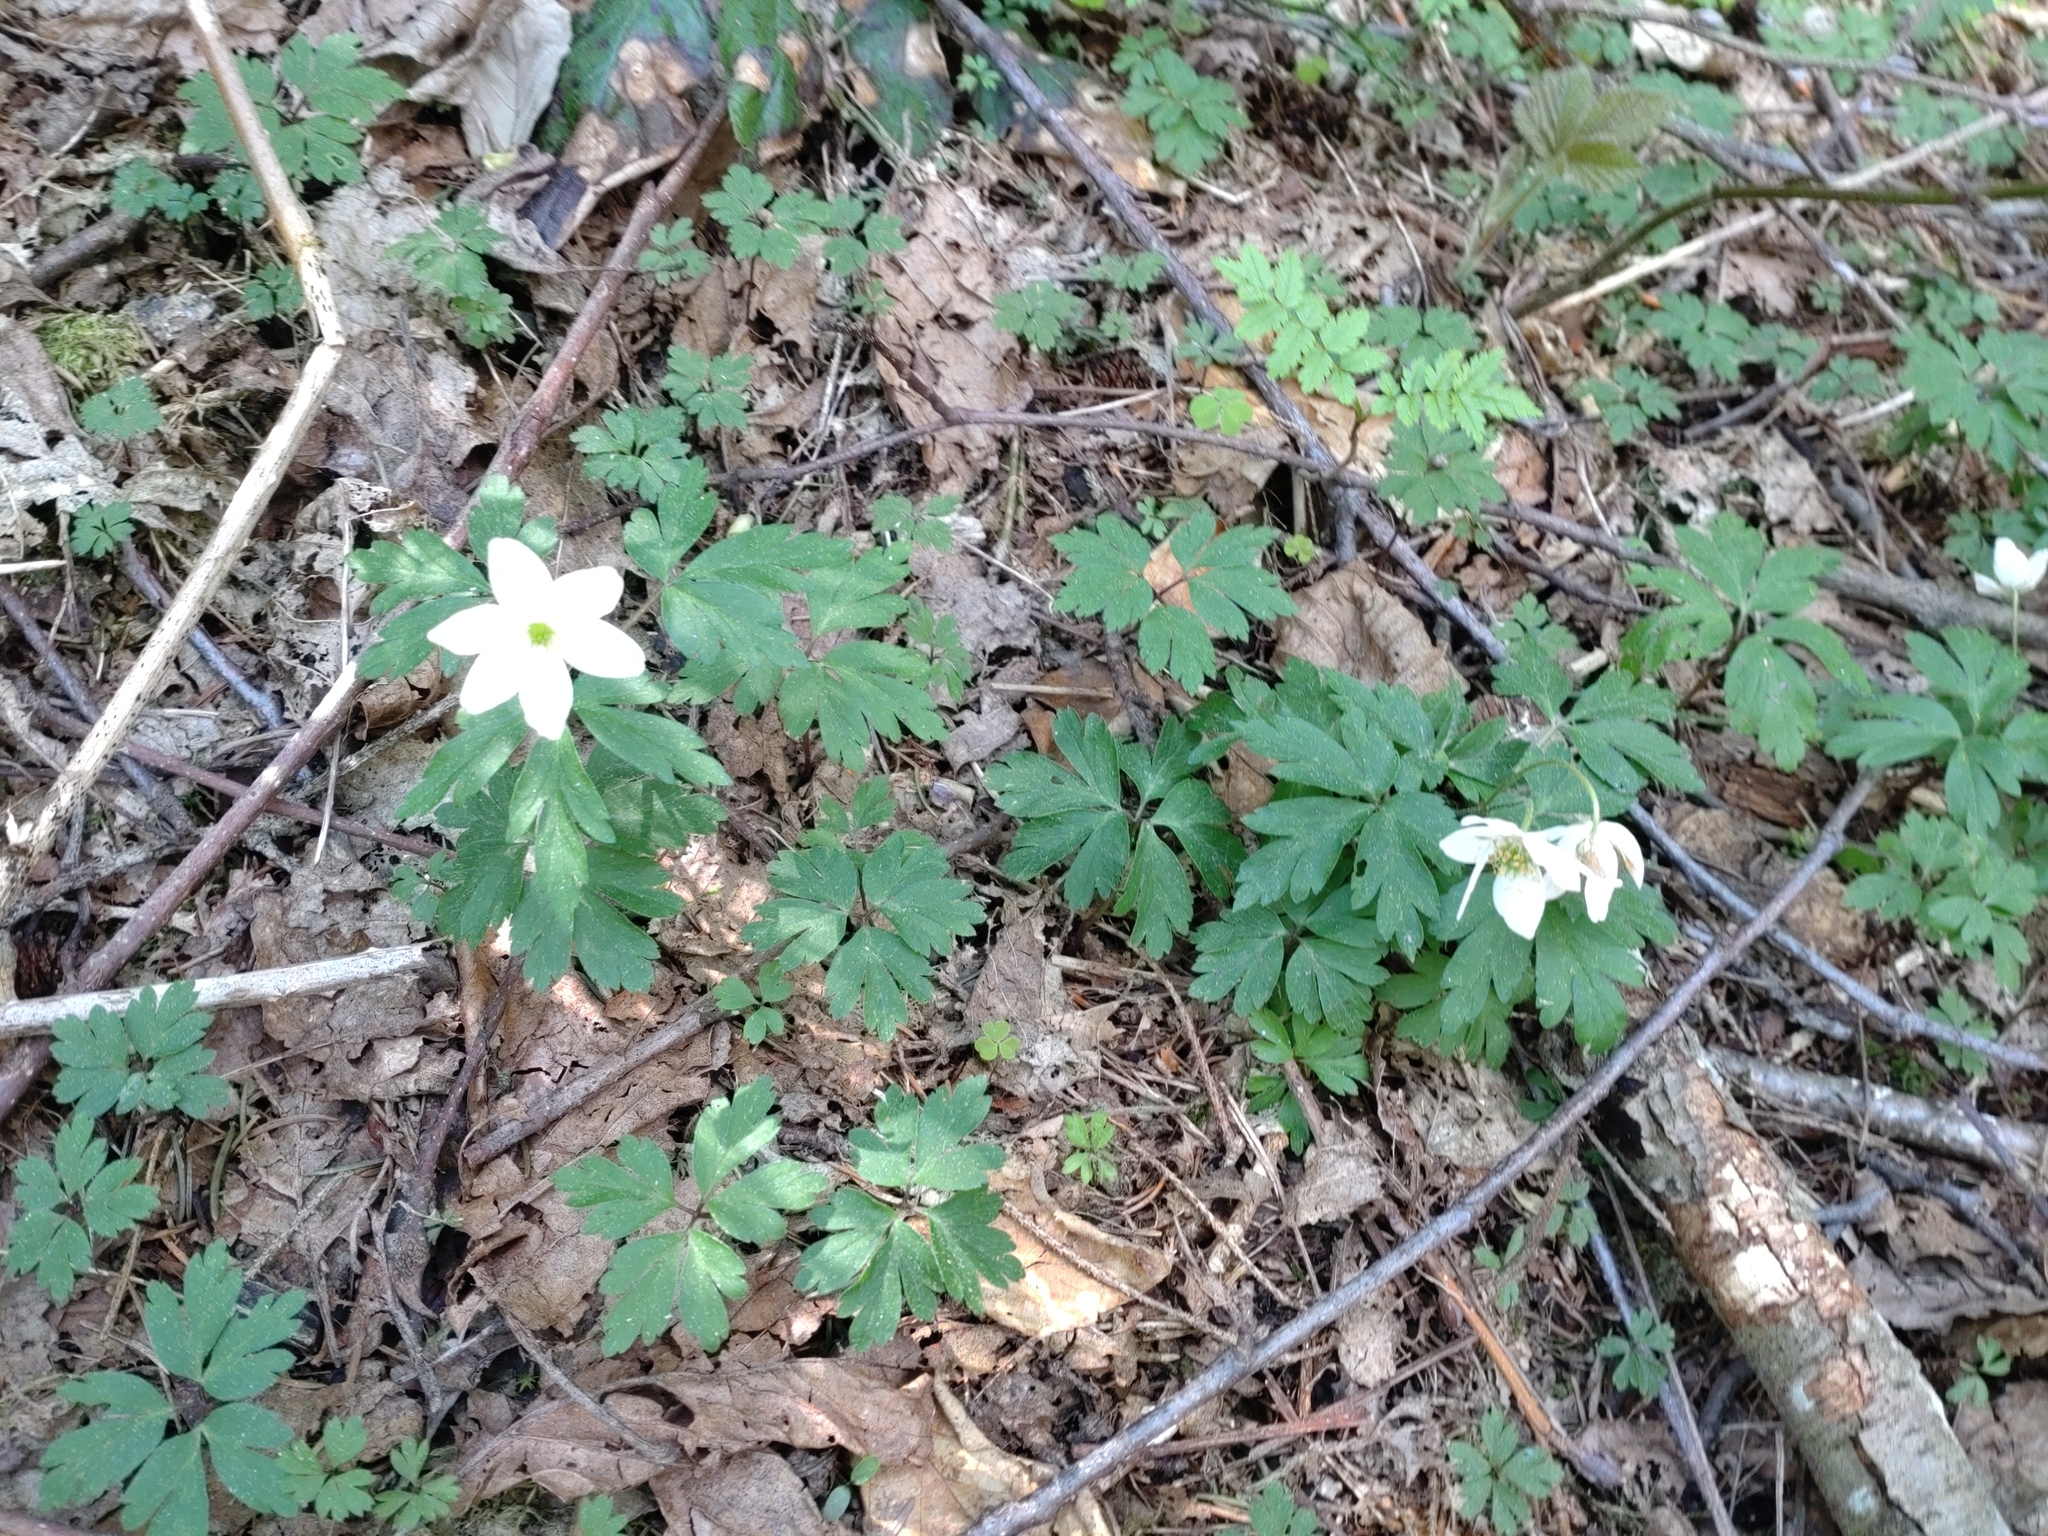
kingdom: Plantae
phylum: Tracheophyta
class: Magnoliopsida
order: Ranunculales
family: Ranunculaceae
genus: Anemone
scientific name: Anemone nemorosa
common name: Wood anemone
